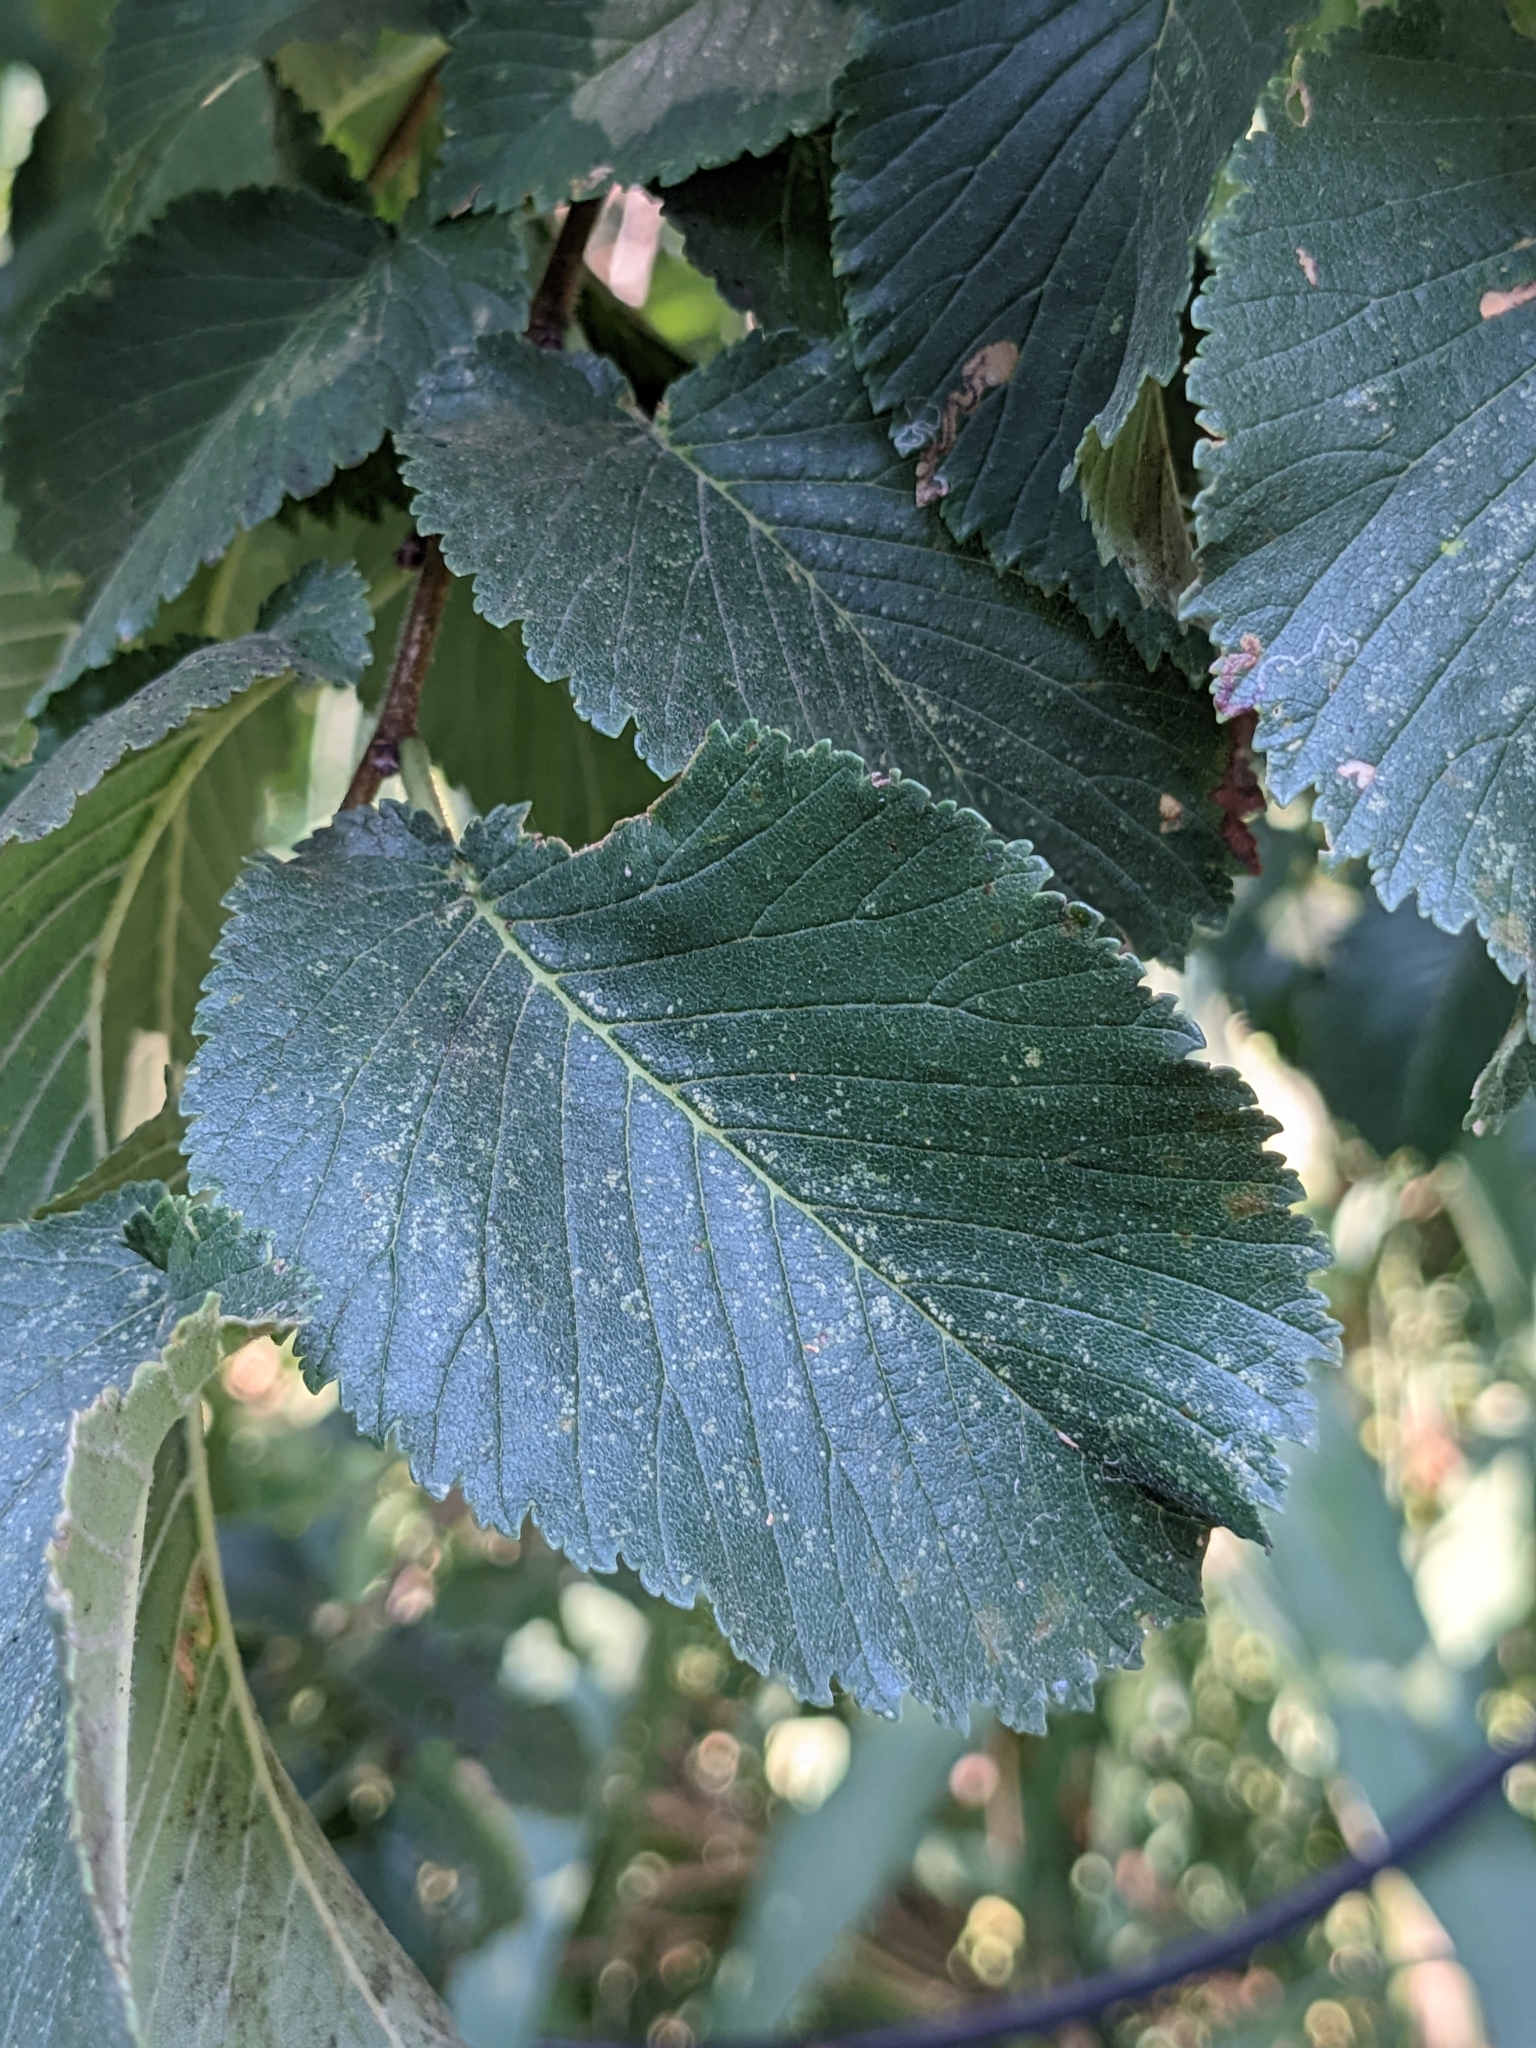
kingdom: Plantae
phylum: Tracheophyta
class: Magnoliopsida
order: Rosales
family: Ulmaceae
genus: Ulmus
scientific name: Ulmus minor
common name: Small-leaved elm
